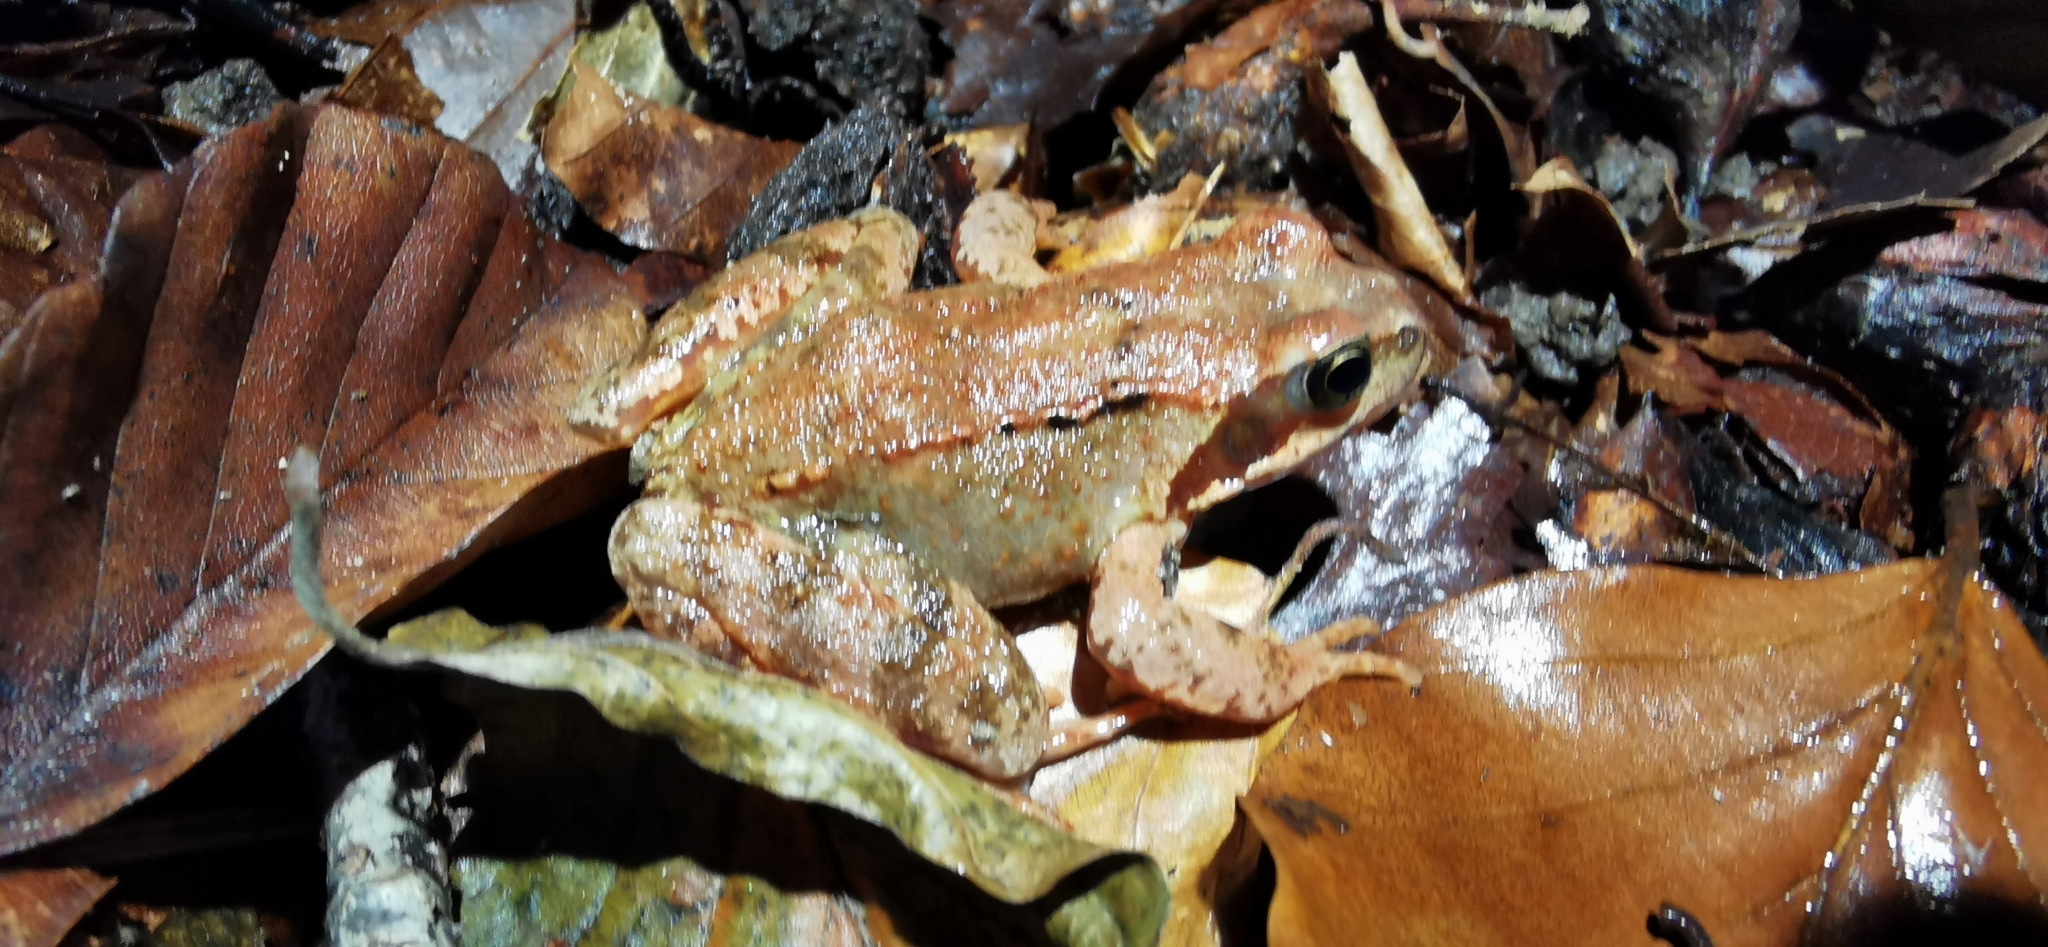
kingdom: Animalia
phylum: Chordata
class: Amphibia
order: Anura
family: Ranidae
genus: Rana
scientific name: Rana temporaria
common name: Common frog
